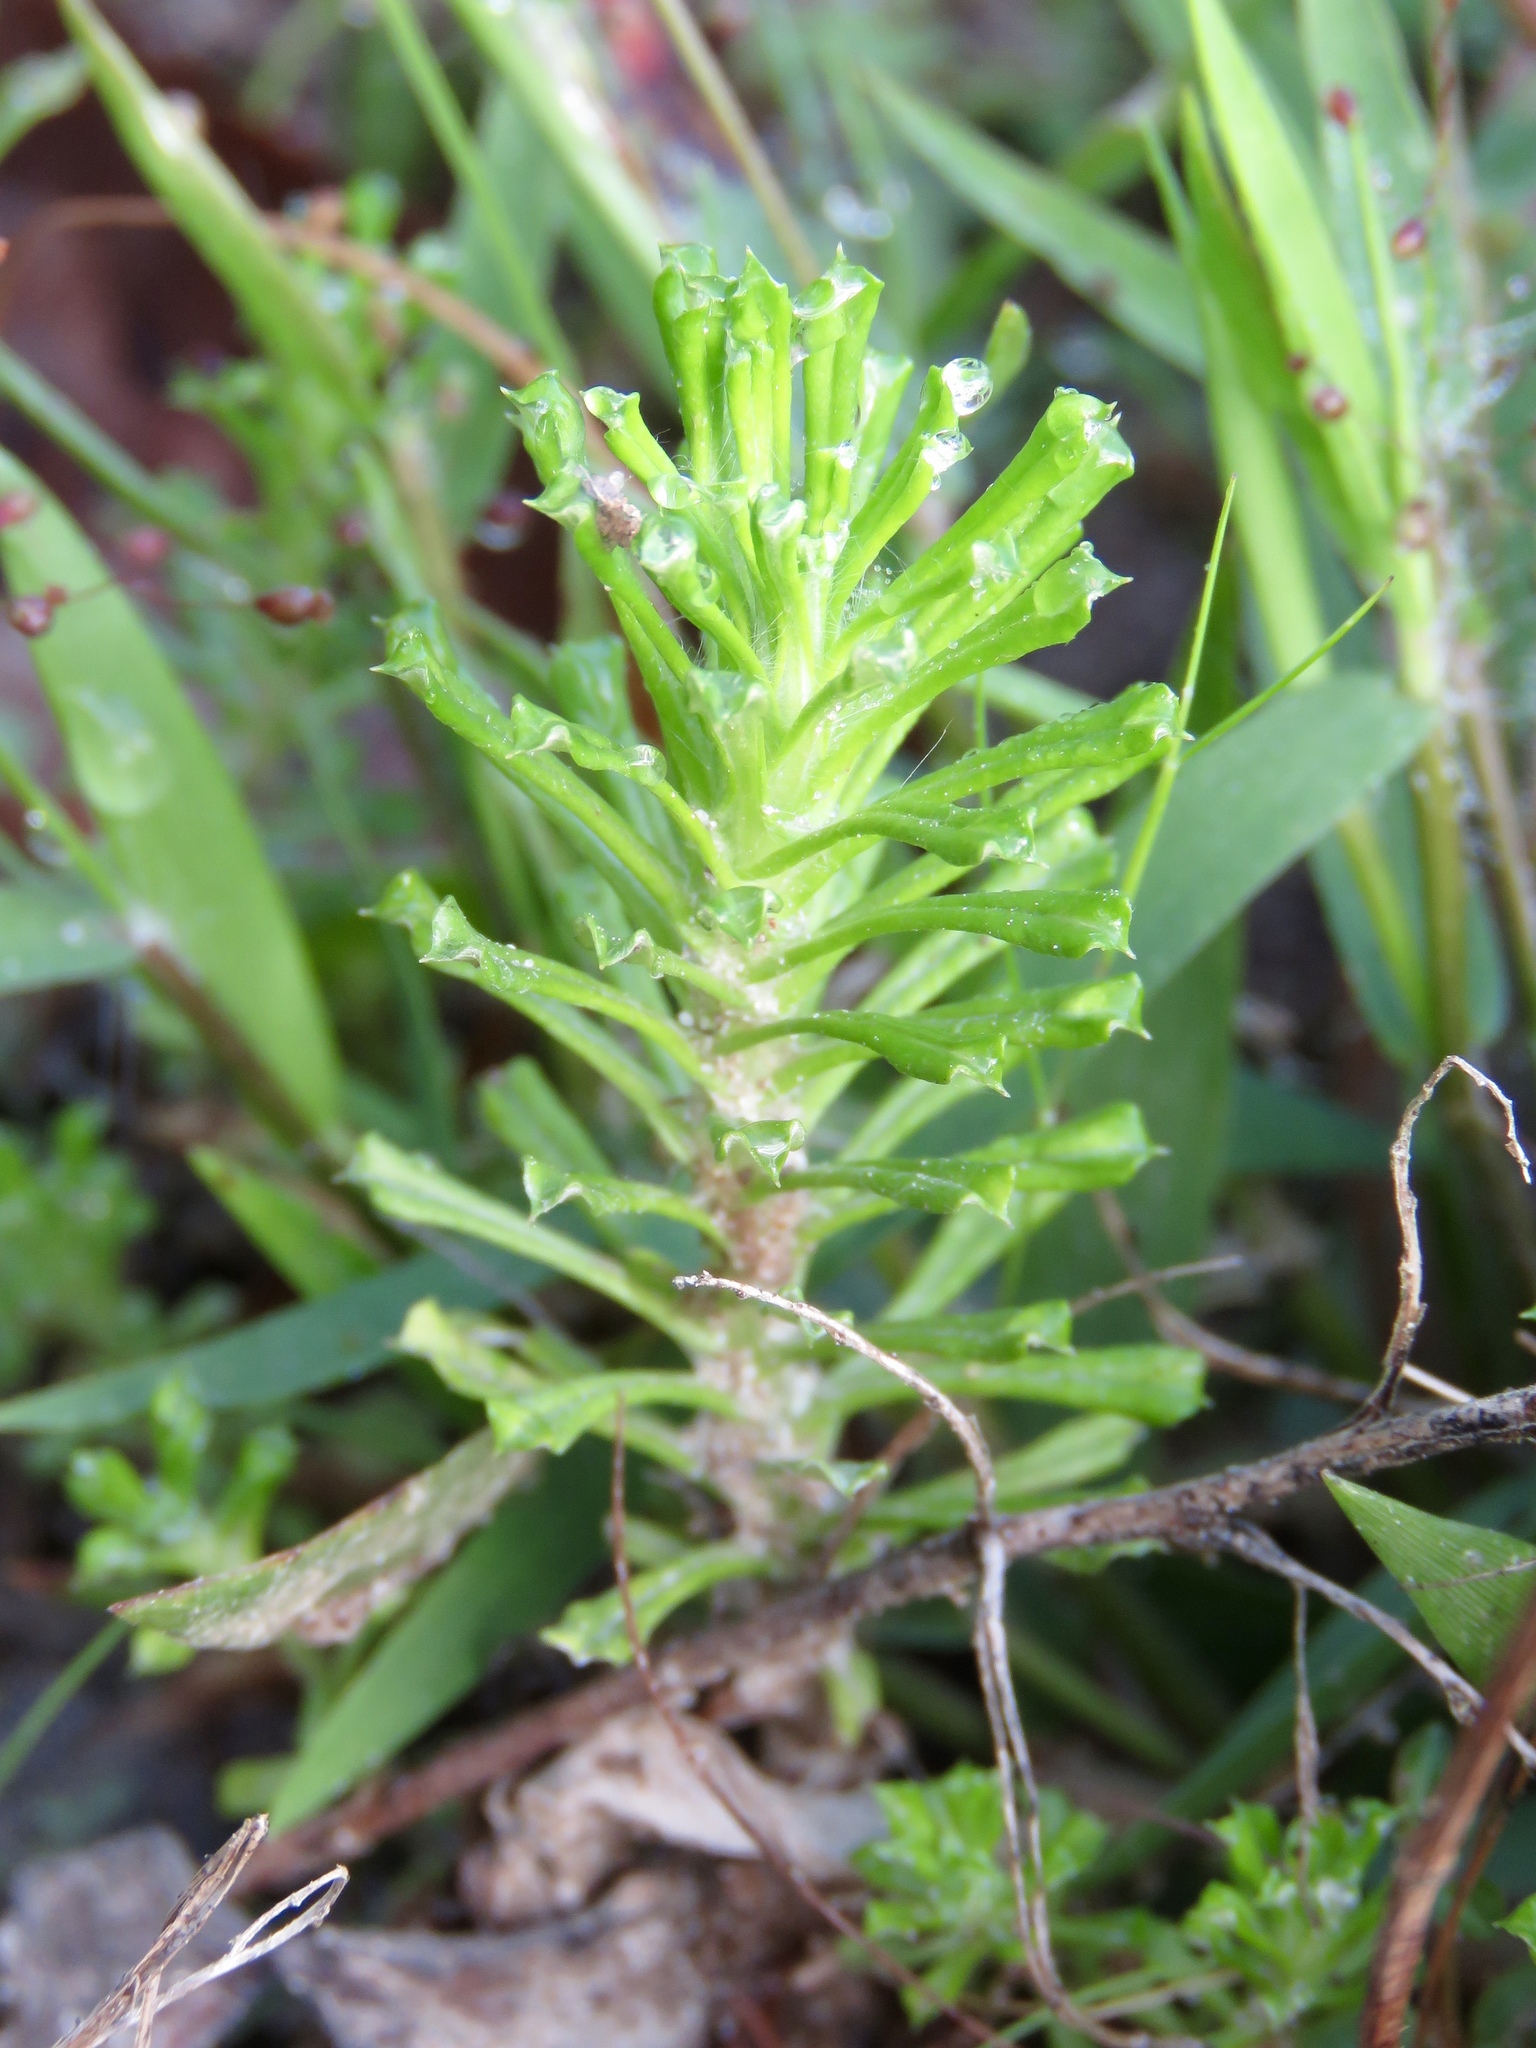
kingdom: Plantae
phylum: Tracheophyta
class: Magnoliopsida
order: Asterales
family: Asteraceae
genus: Facelis
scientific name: Facelis retusa
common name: Annual trampweed
